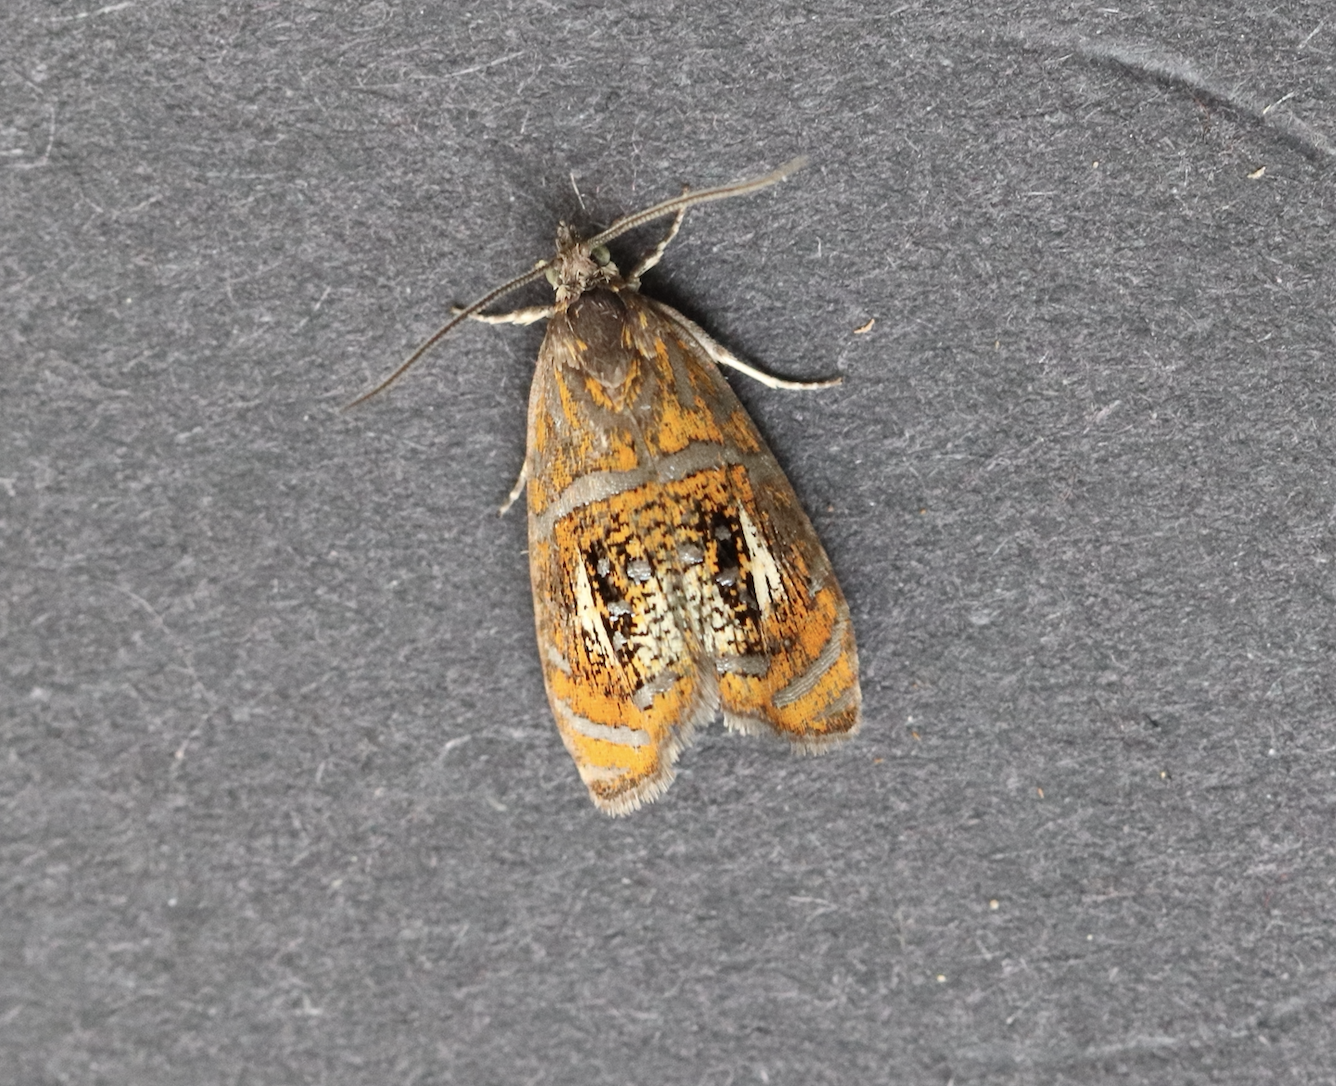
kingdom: Animalia
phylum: Arthropoda
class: Insecta
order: Lepidoptera
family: Tortricidae
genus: Olethreutes
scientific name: Olethreutes arcuella
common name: Arched marble
